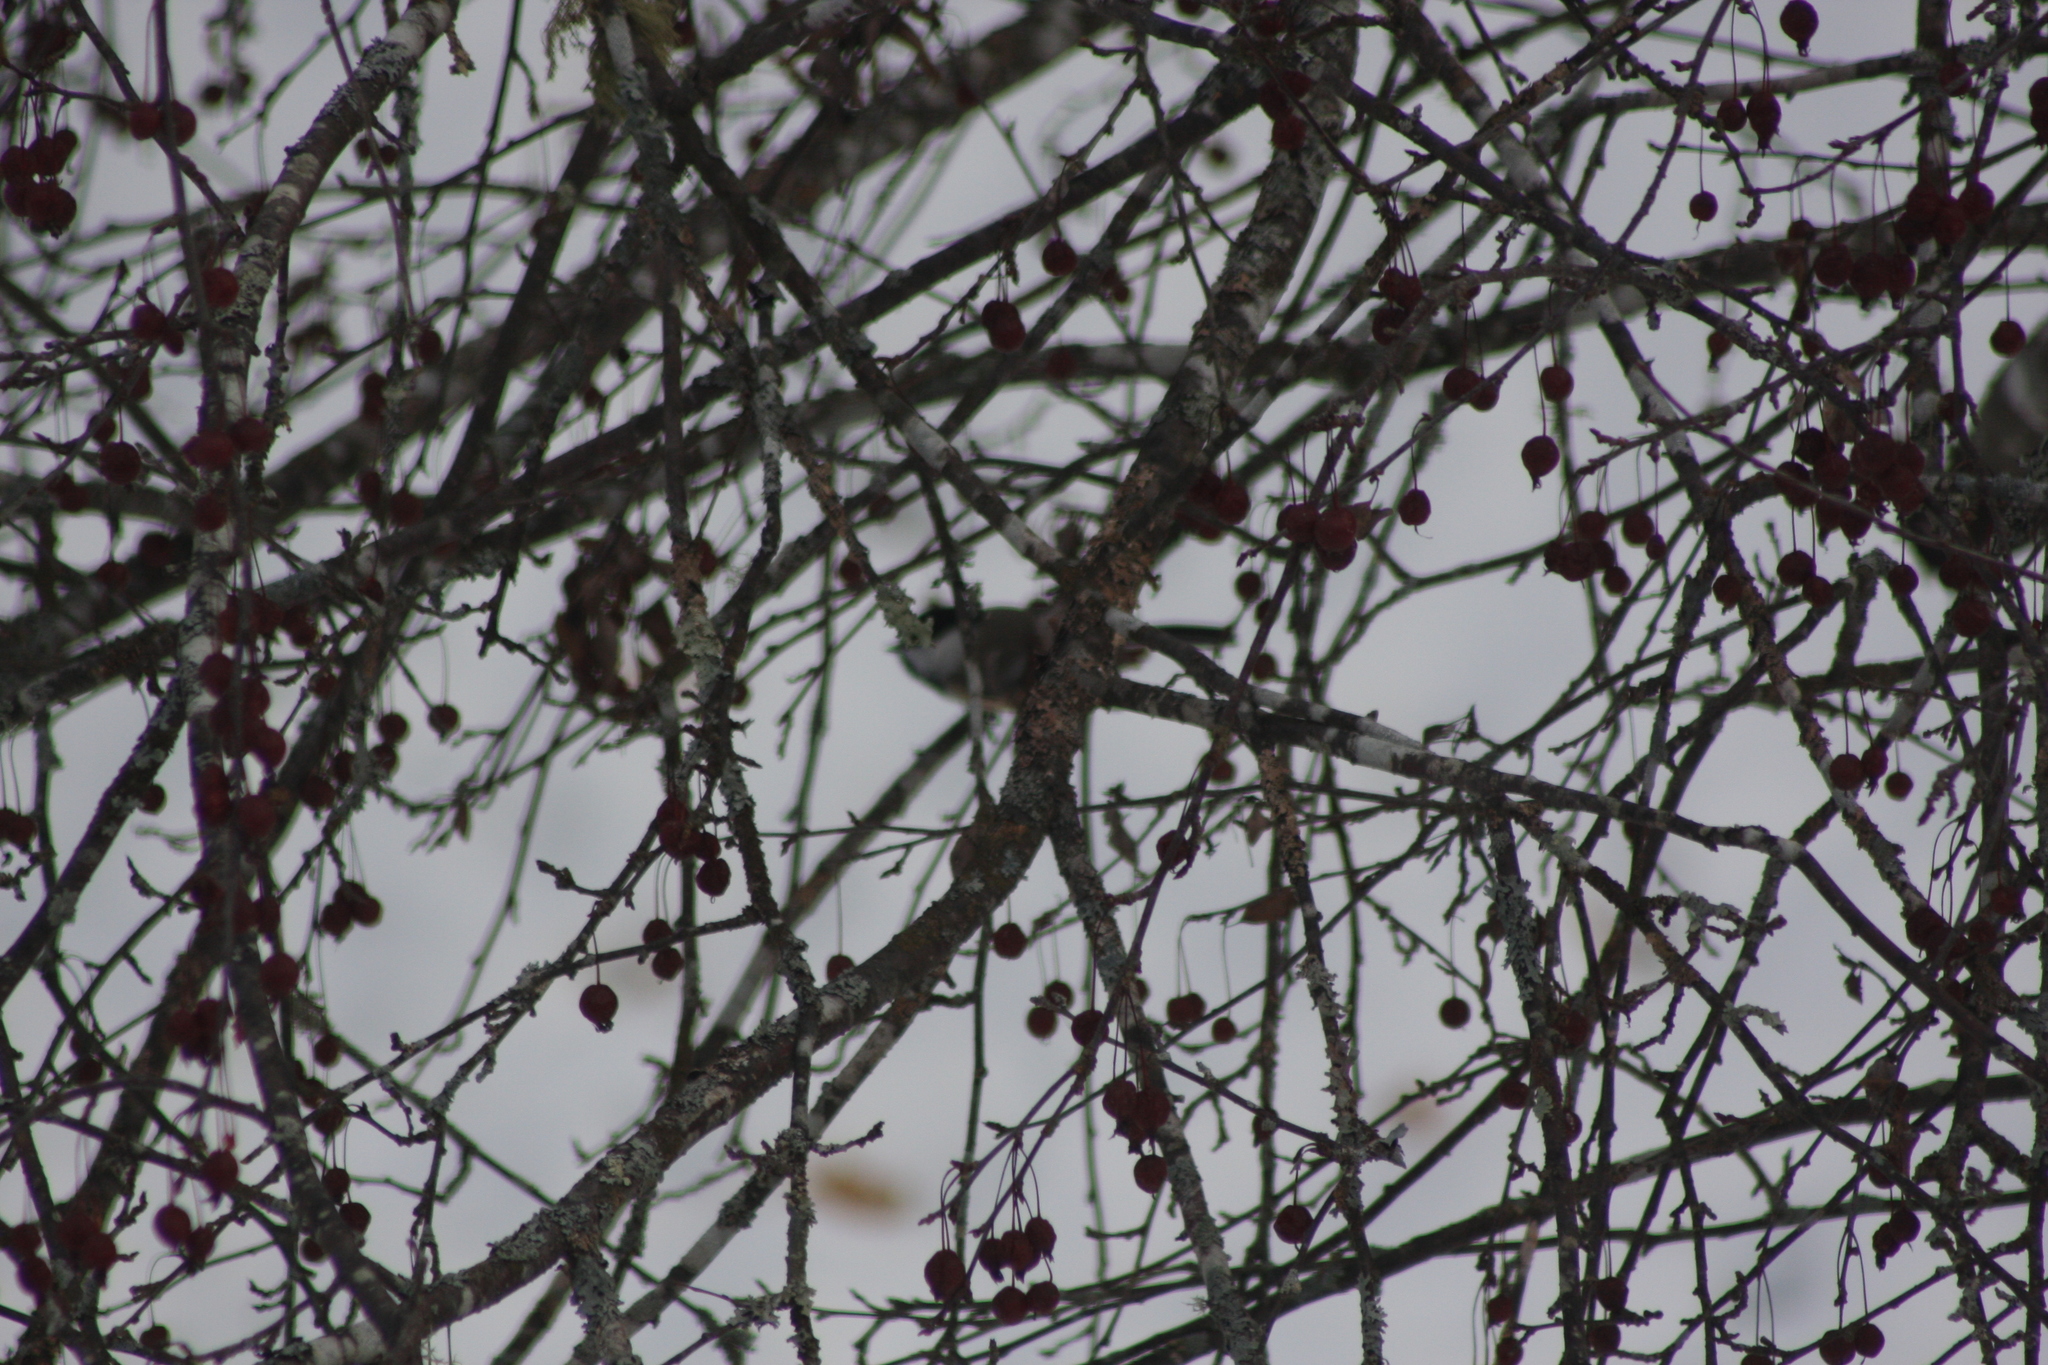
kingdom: Animalia
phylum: Chordata
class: Aves
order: Passeriformes
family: Paridae
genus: Poecile
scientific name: Poecile atricapillus
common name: Black-capped chickadee
